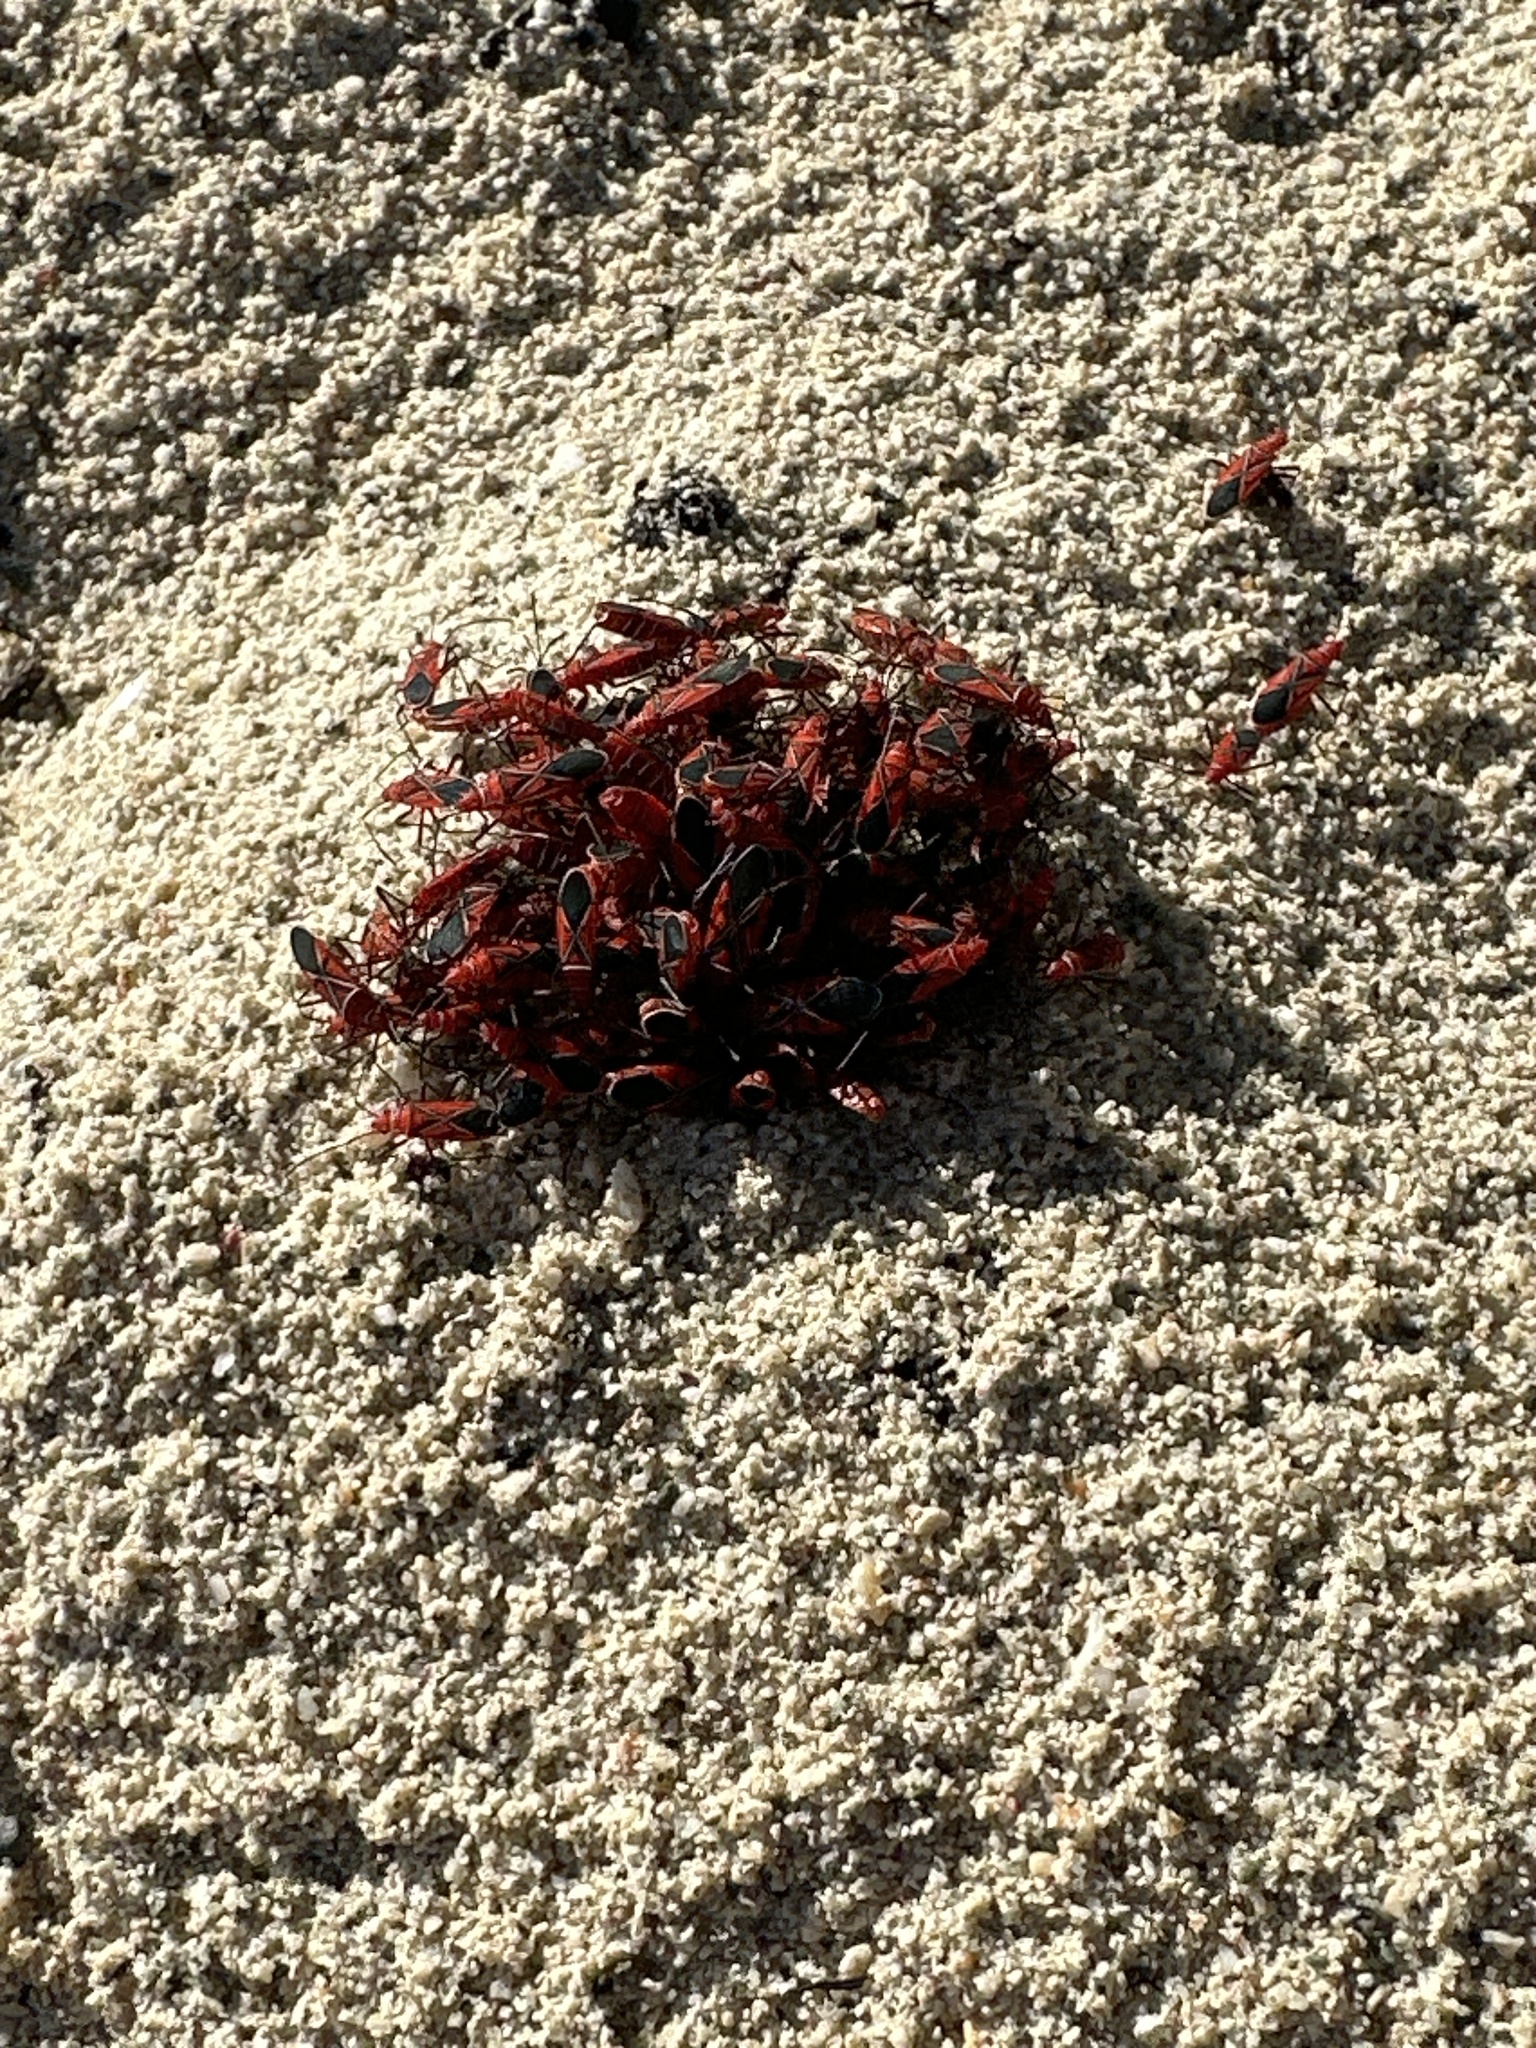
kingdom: Animalia
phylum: Arthropoda
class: Insecta
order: Hemiptera
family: Pyrrhocoridae
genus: Dysdercus
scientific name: Dysdercus andreae
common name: St. andrew's cotton stainer
